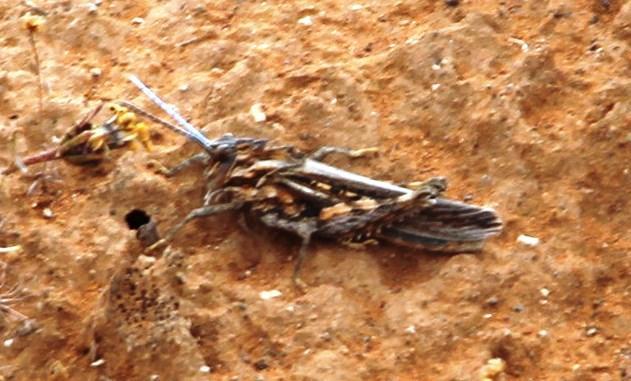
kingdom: Animalia
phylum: Arthropoda
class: Insecta
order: Orthoptera
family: Pamphagidae
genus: Adephagus
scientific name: Adephagus cristatus
